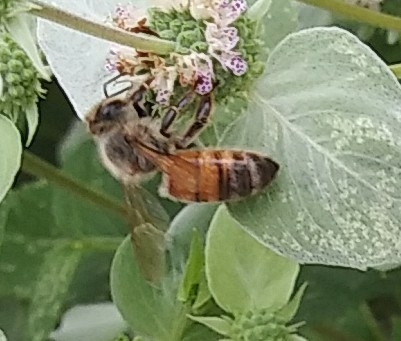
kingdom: Animalia
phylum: Arthropoda
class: Insecta
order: Hymenoptera
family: Apidae
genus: Apis
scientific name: Apis mellifera
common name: Honey bee
